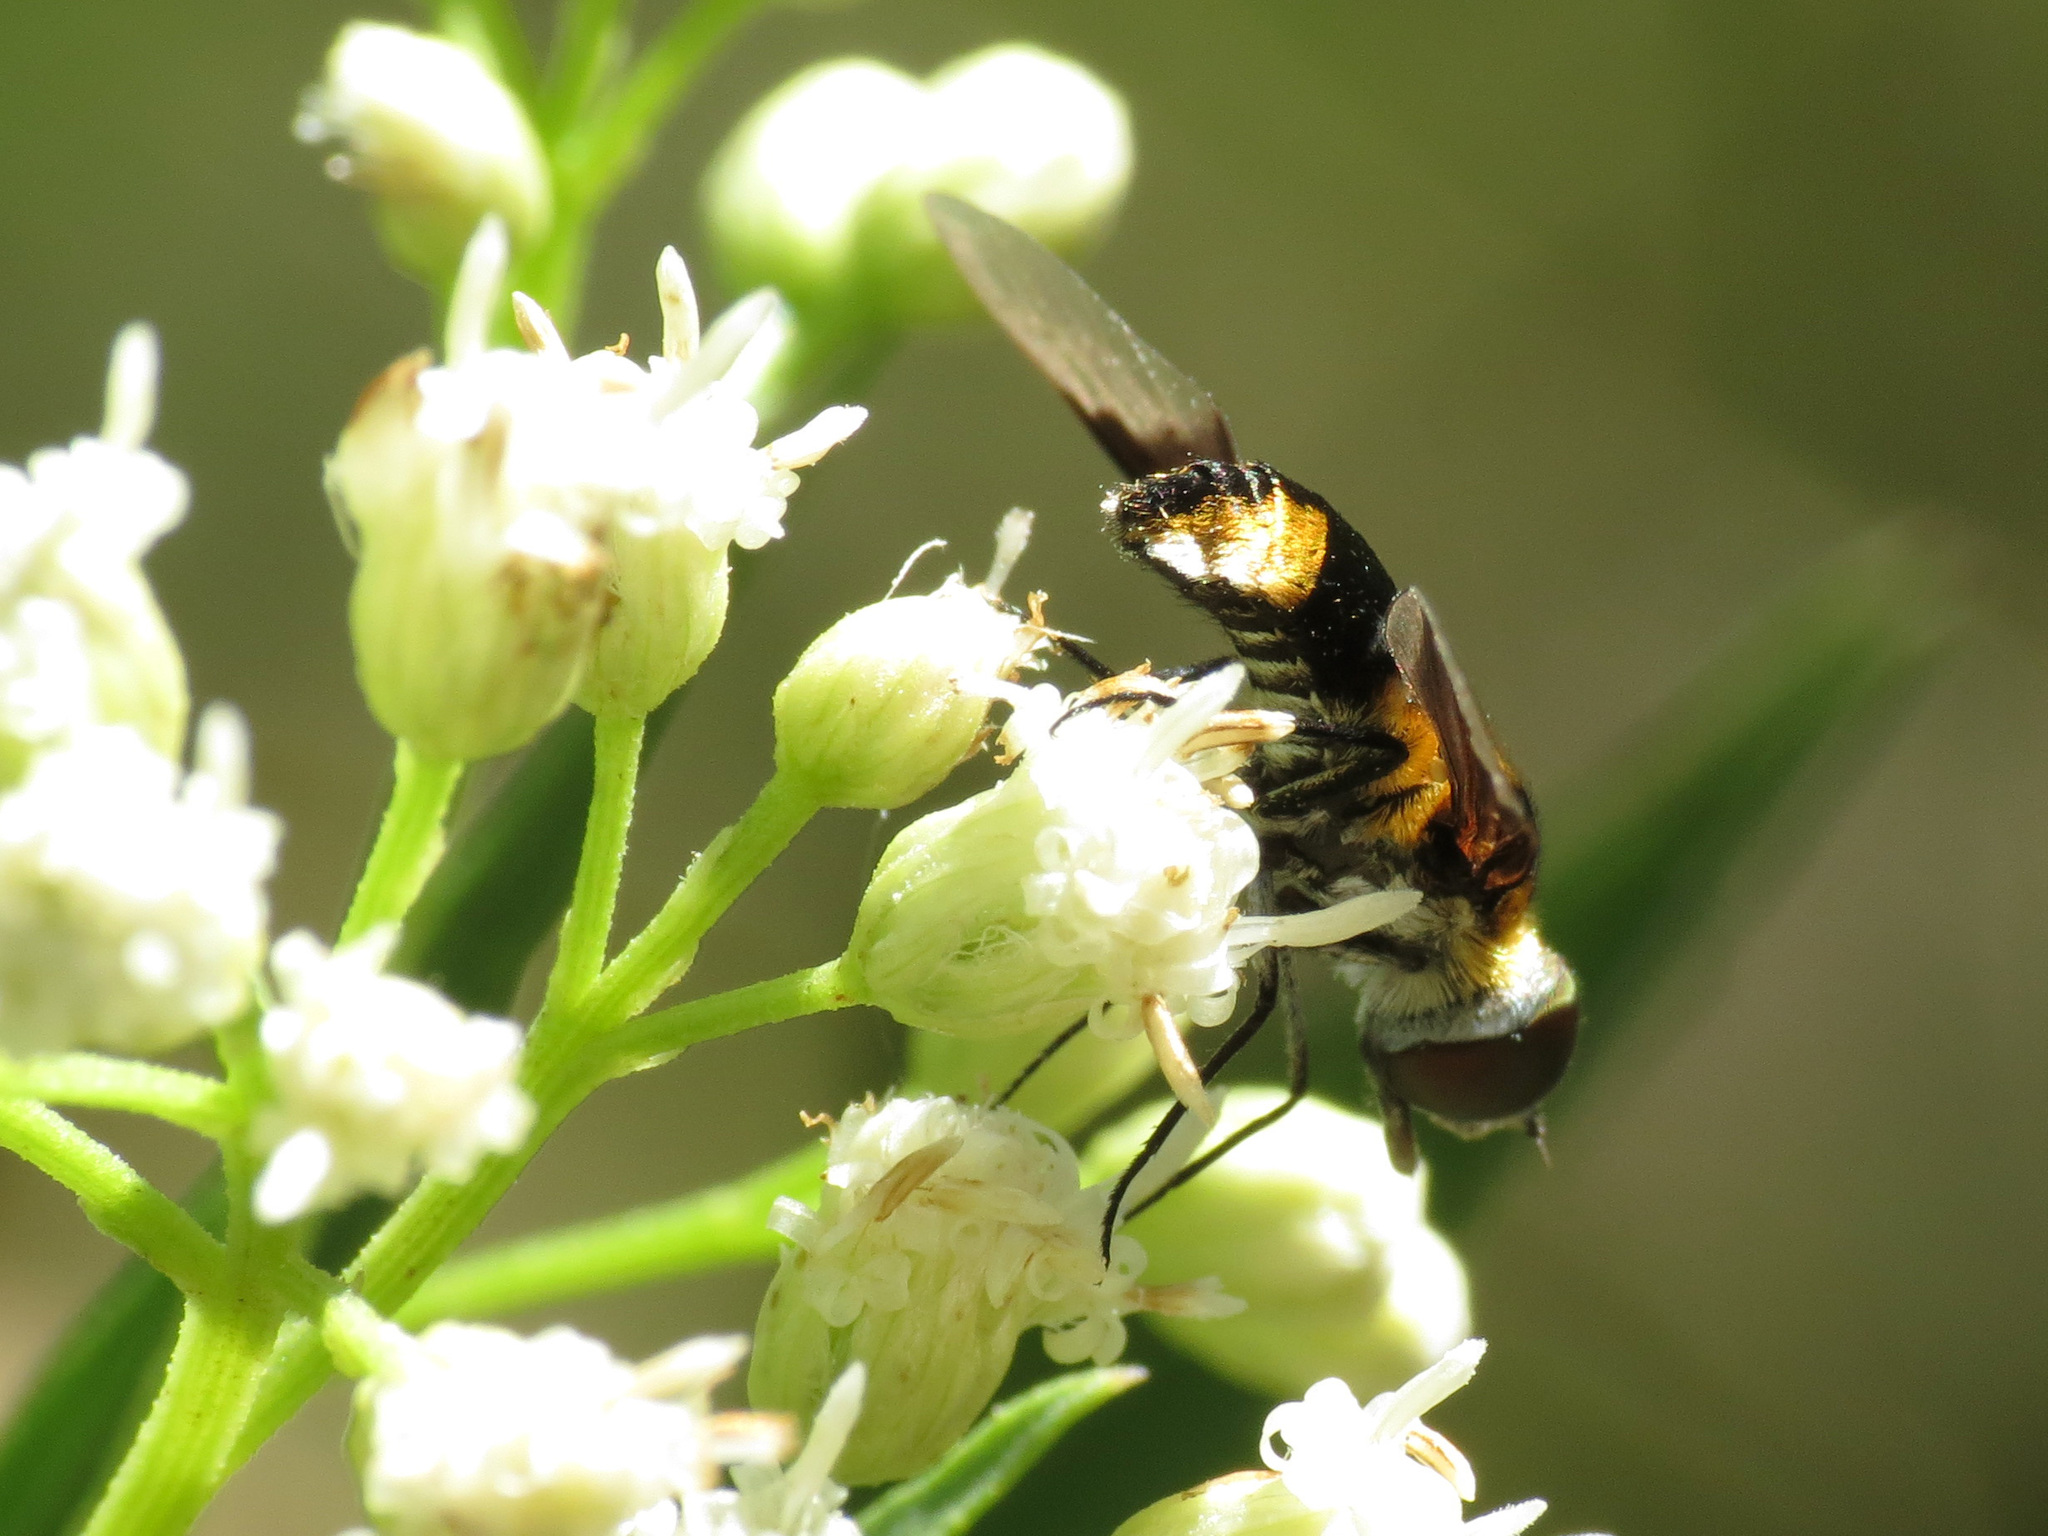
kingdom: Animalia
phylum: Arthropoda
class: Insecta
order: Diptera
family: Bombyliidae
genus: Ins
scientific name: Ins celeris
